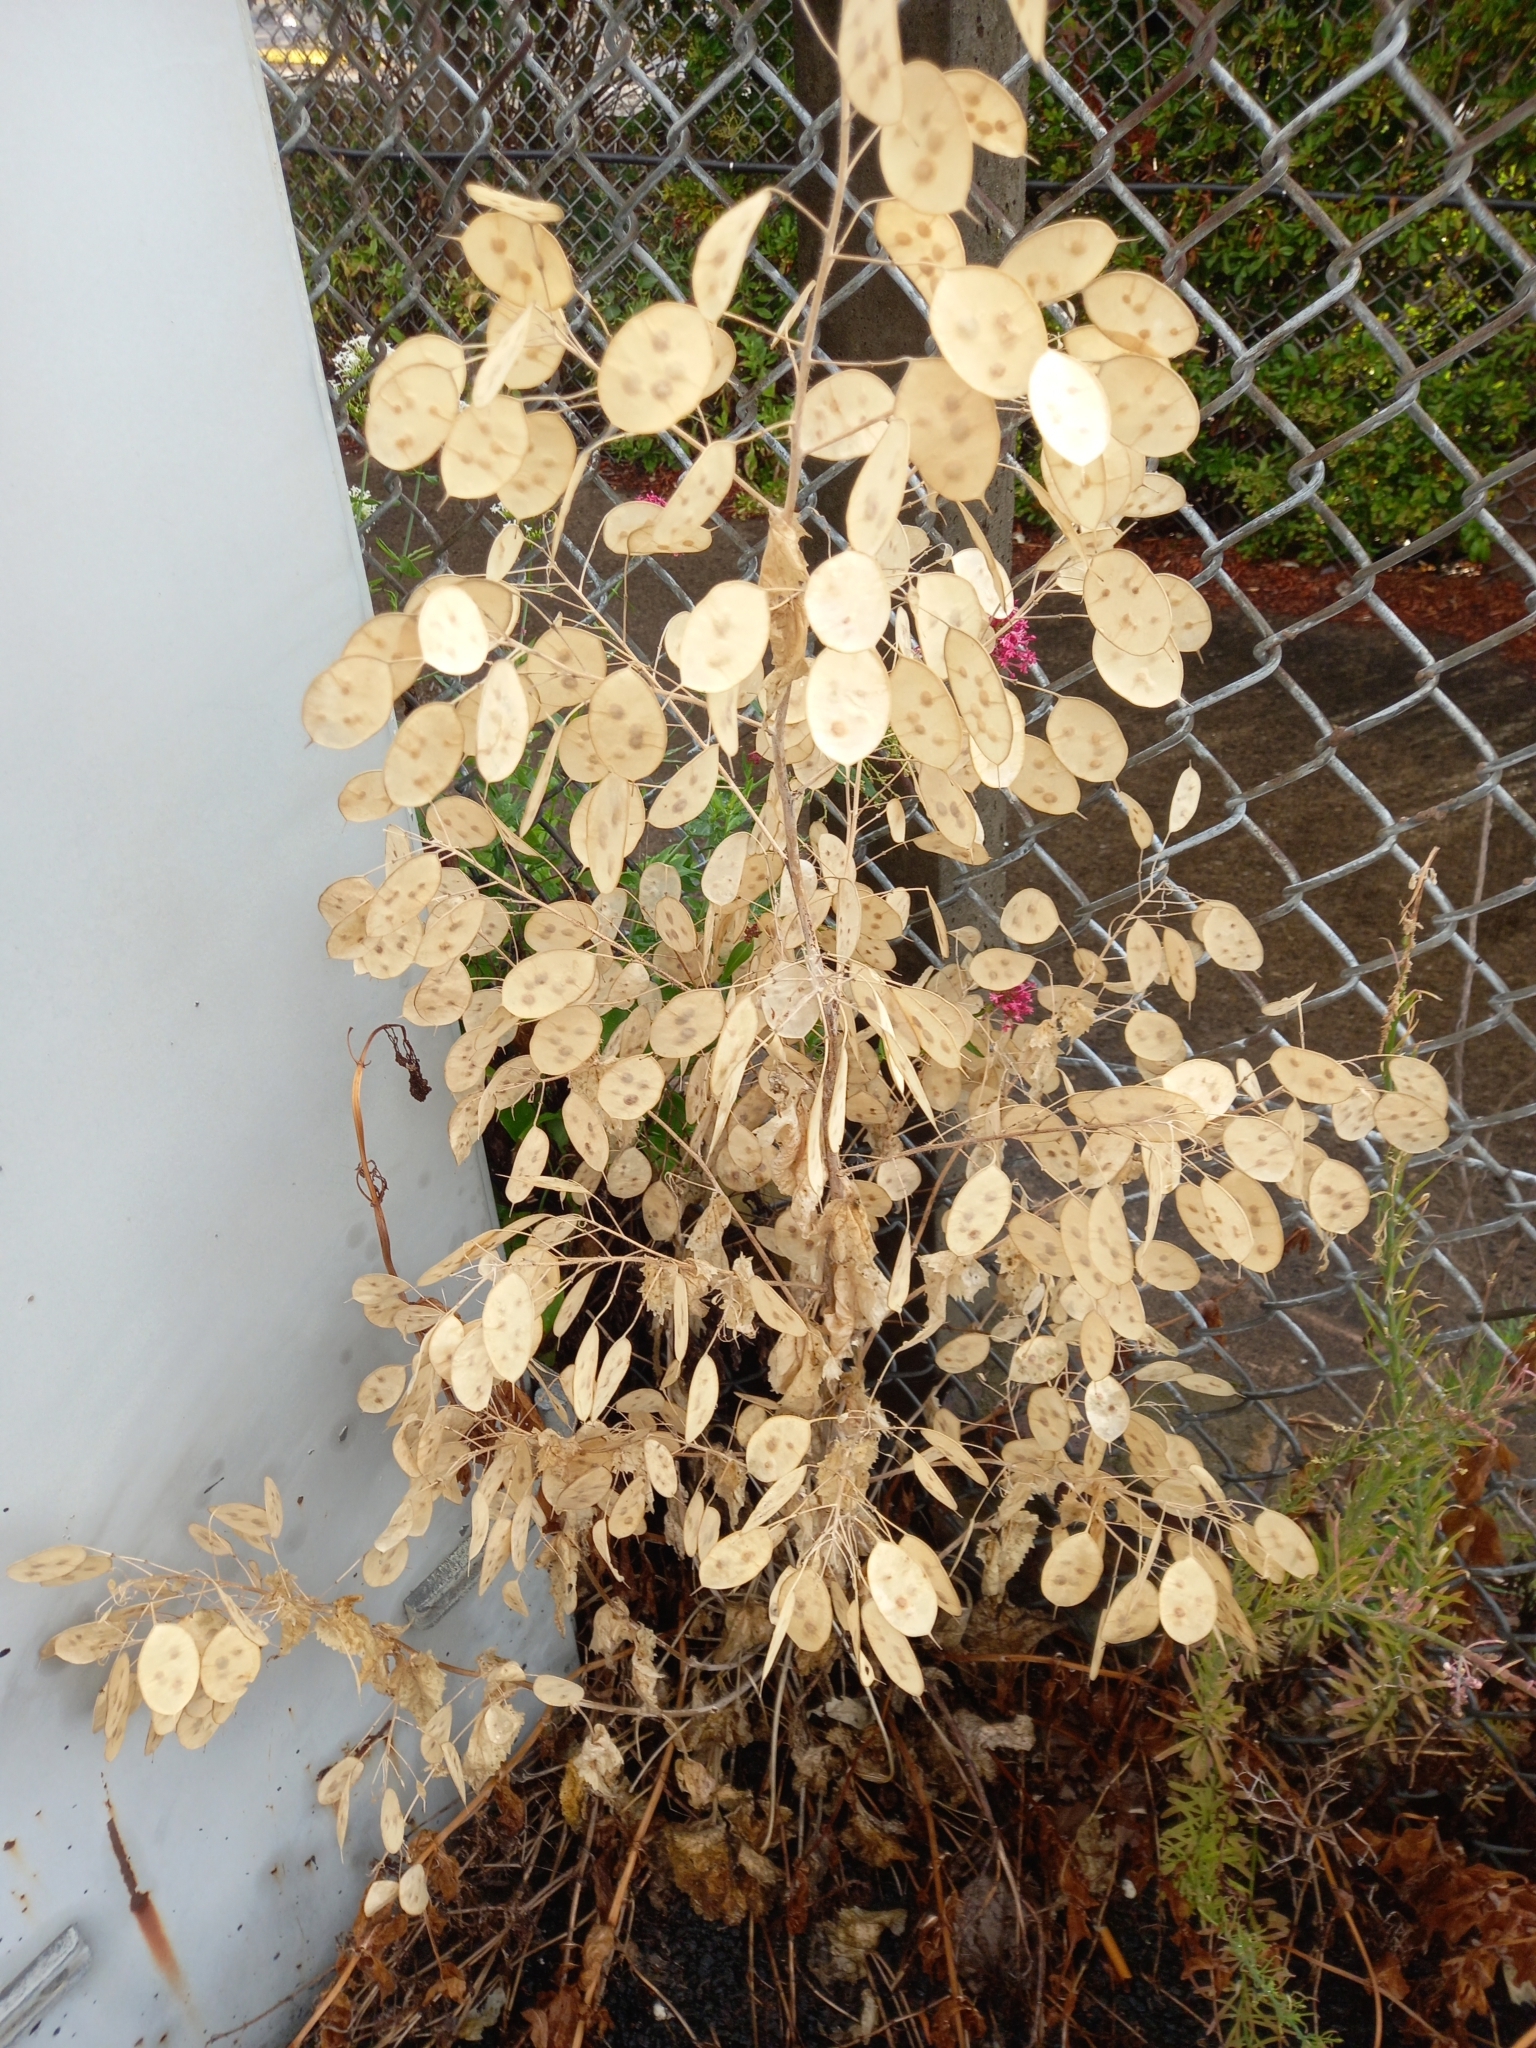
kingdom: Plantae
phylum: Tracheophyta
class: Magnoliopsida
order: Brassicales
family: Brassicaceae
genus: Lunaria
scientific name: Lunaria annua
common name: Honesty
